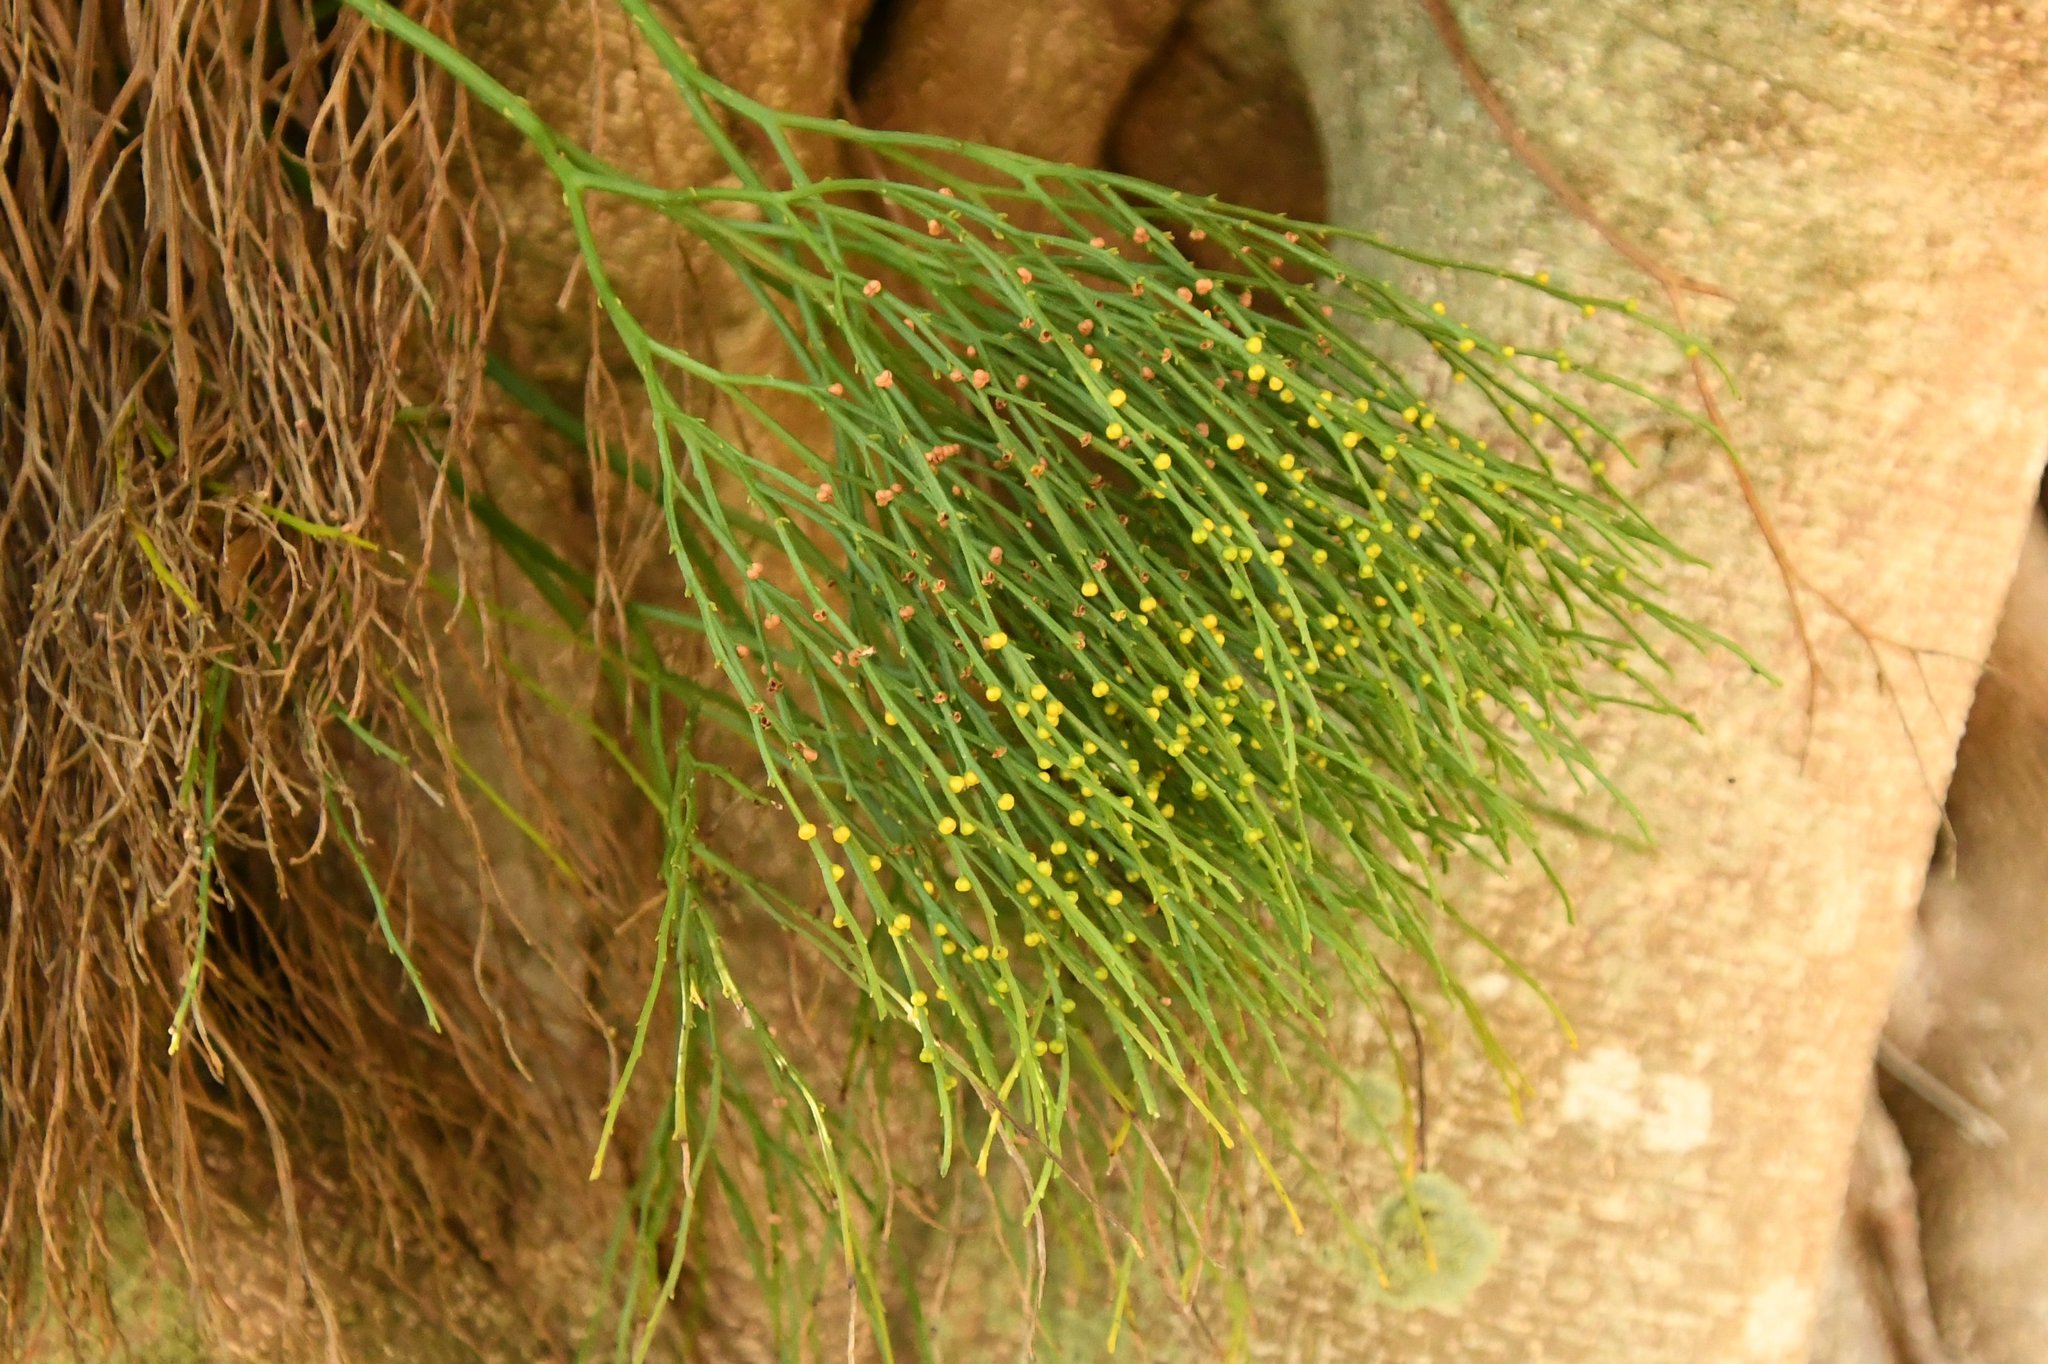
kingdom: Plantae
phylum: Tracheophyta
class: Polypodiopsida
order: Psilotales
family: Psilotaceae
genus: Psilotum
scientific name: Psilotum nudum
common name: Skeleton fork fern
